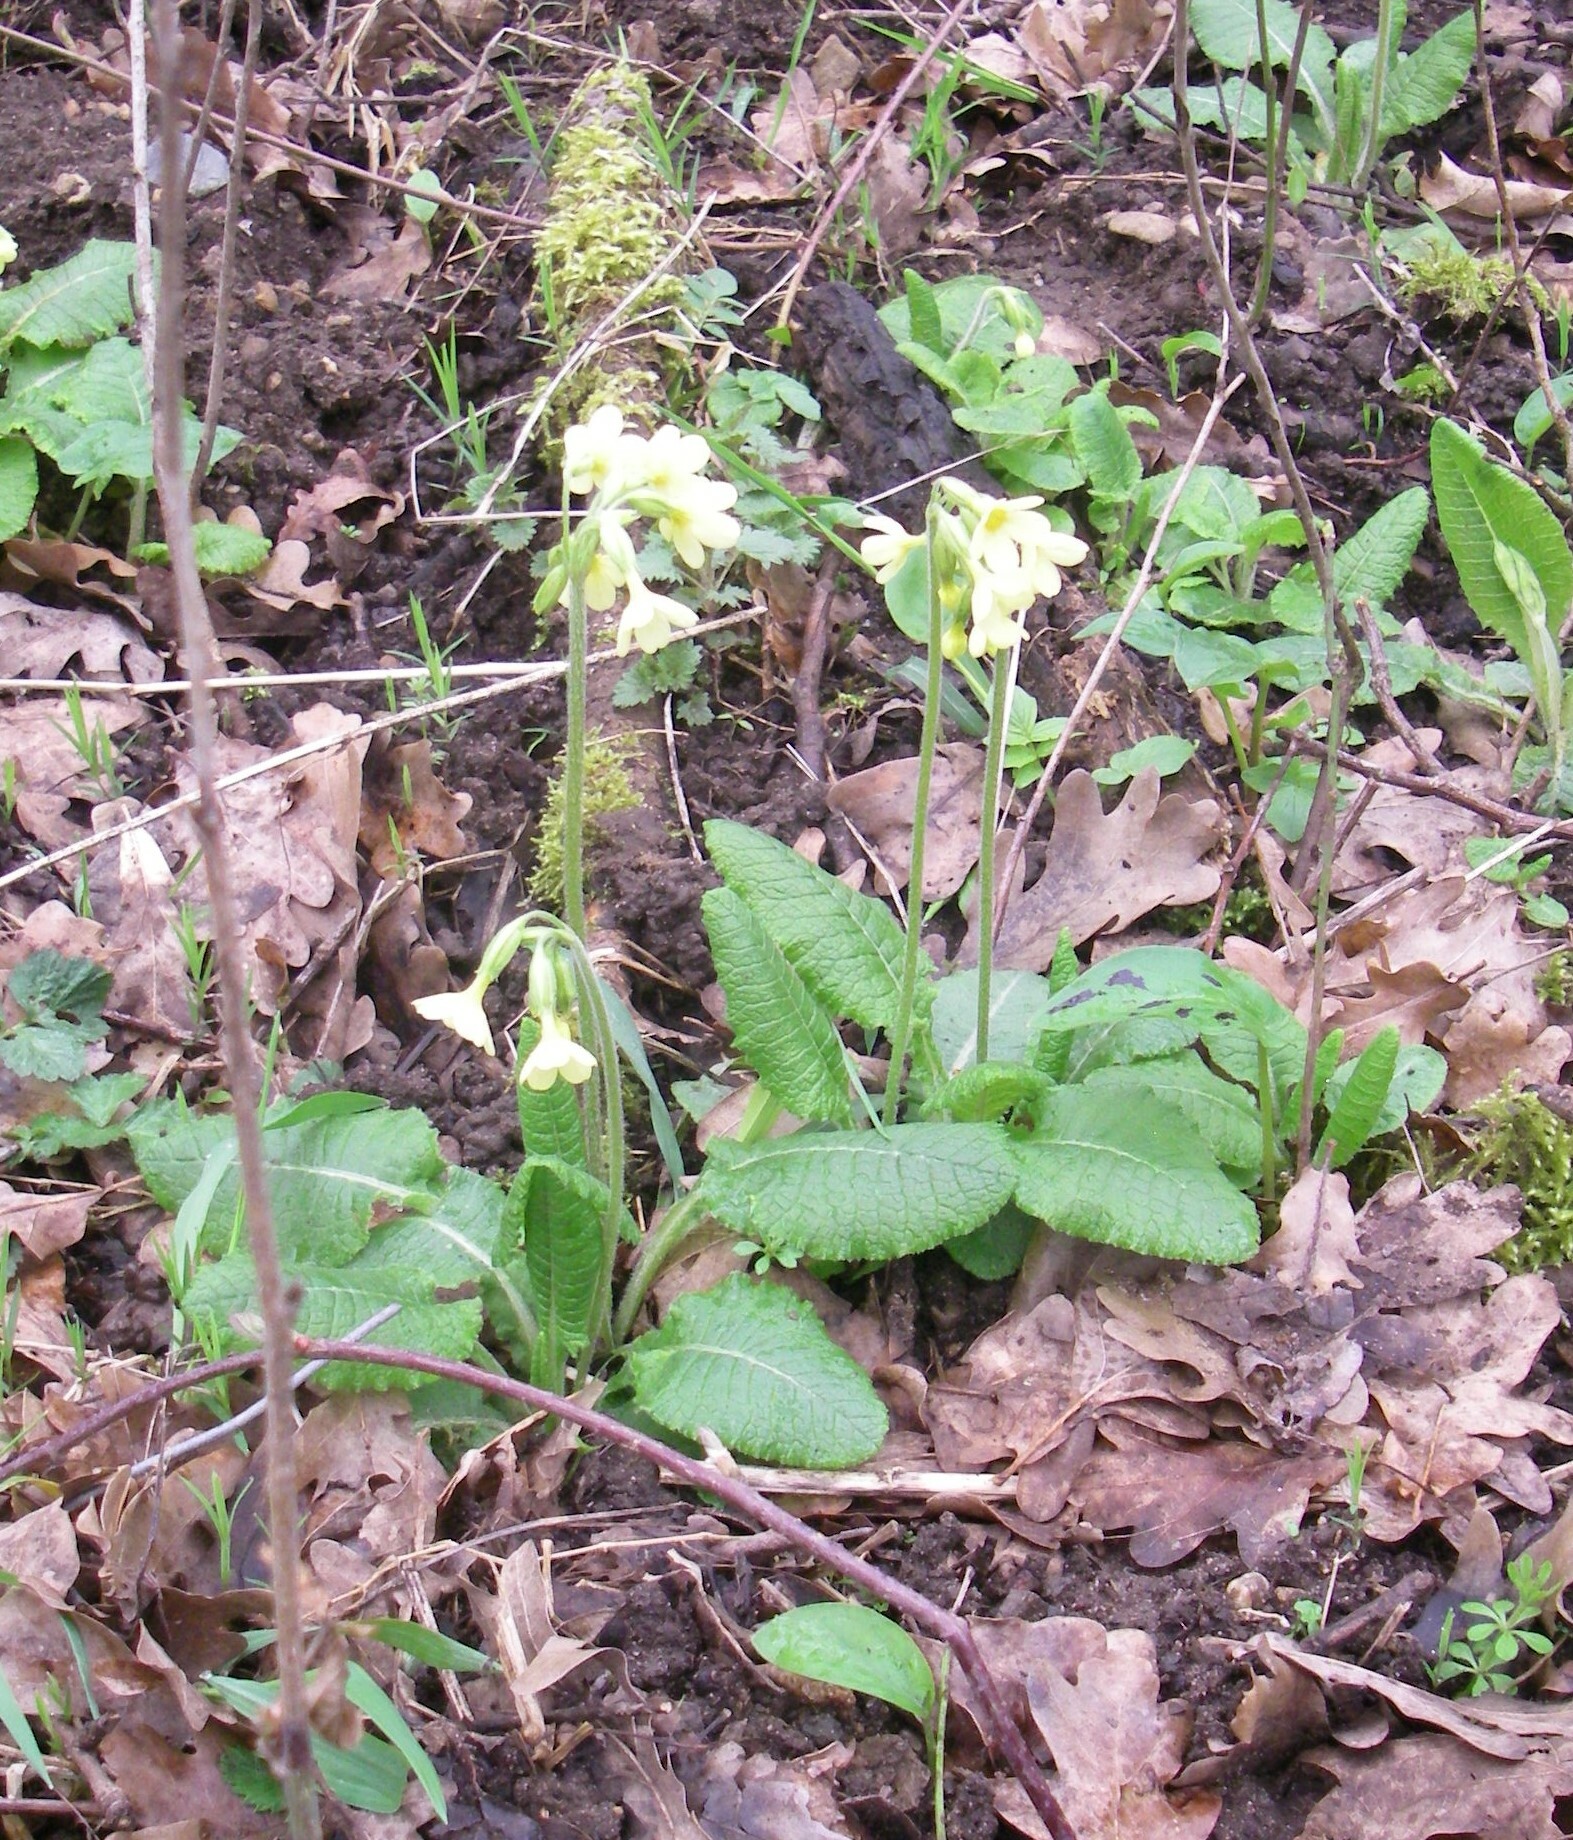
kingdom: Plantae
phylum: Tracheophyta
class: Magnoliopsida
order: Ericales
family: Primulaceae
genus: Primula
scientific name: Primula elatior
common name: Oxlip
